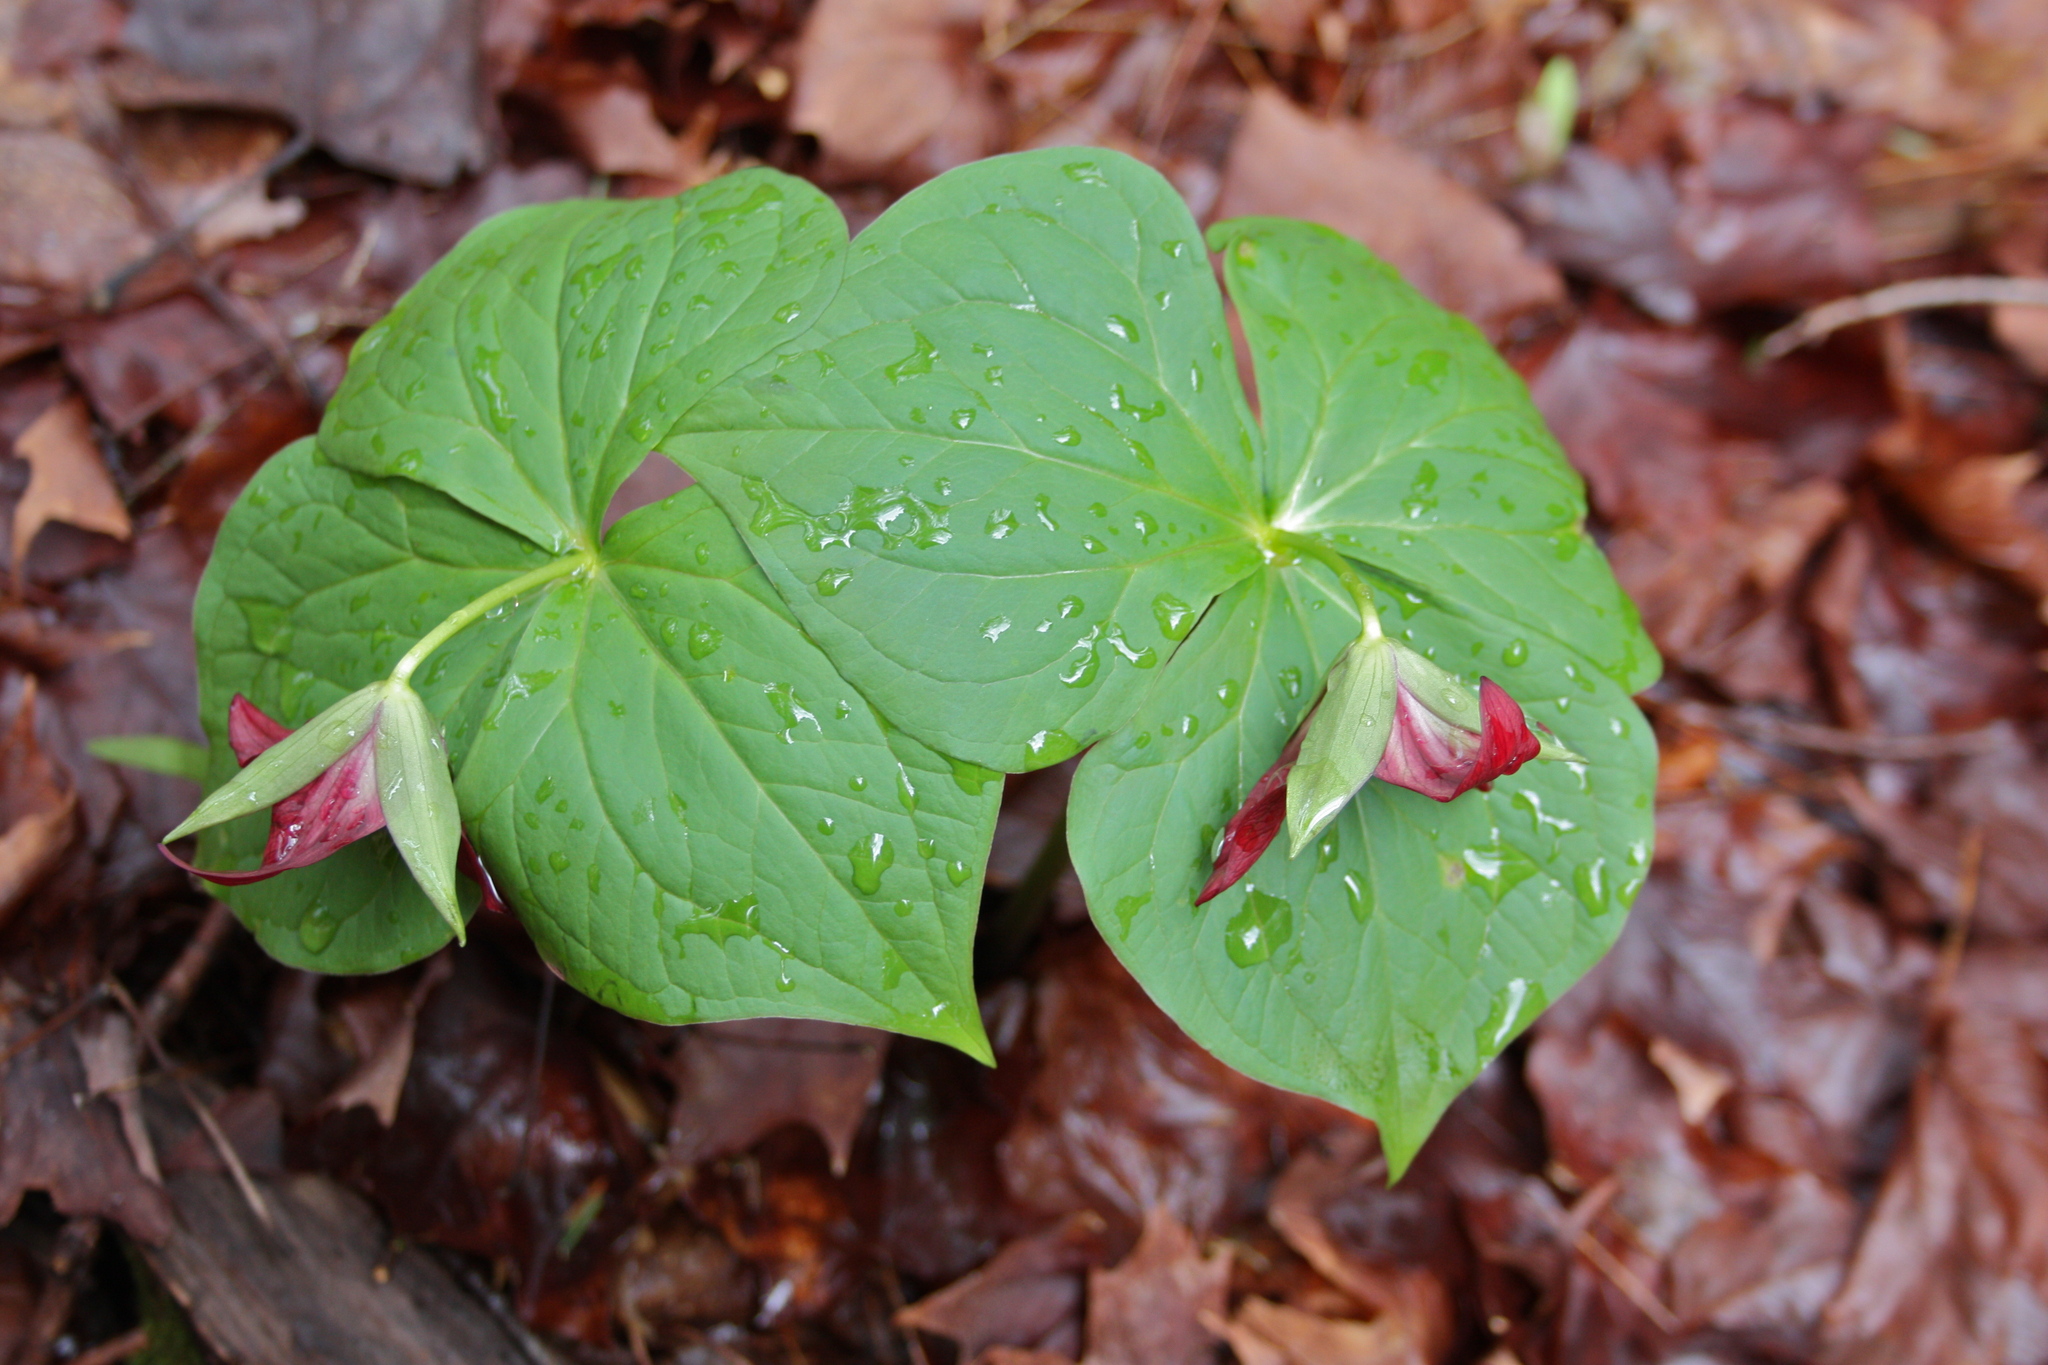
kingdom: Plantae
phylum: Tracheophyta
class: Liliopsida
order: Liliales
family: Melanthiaceae
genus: Trillium
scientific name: Trillium erectum
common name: Purple trillium
